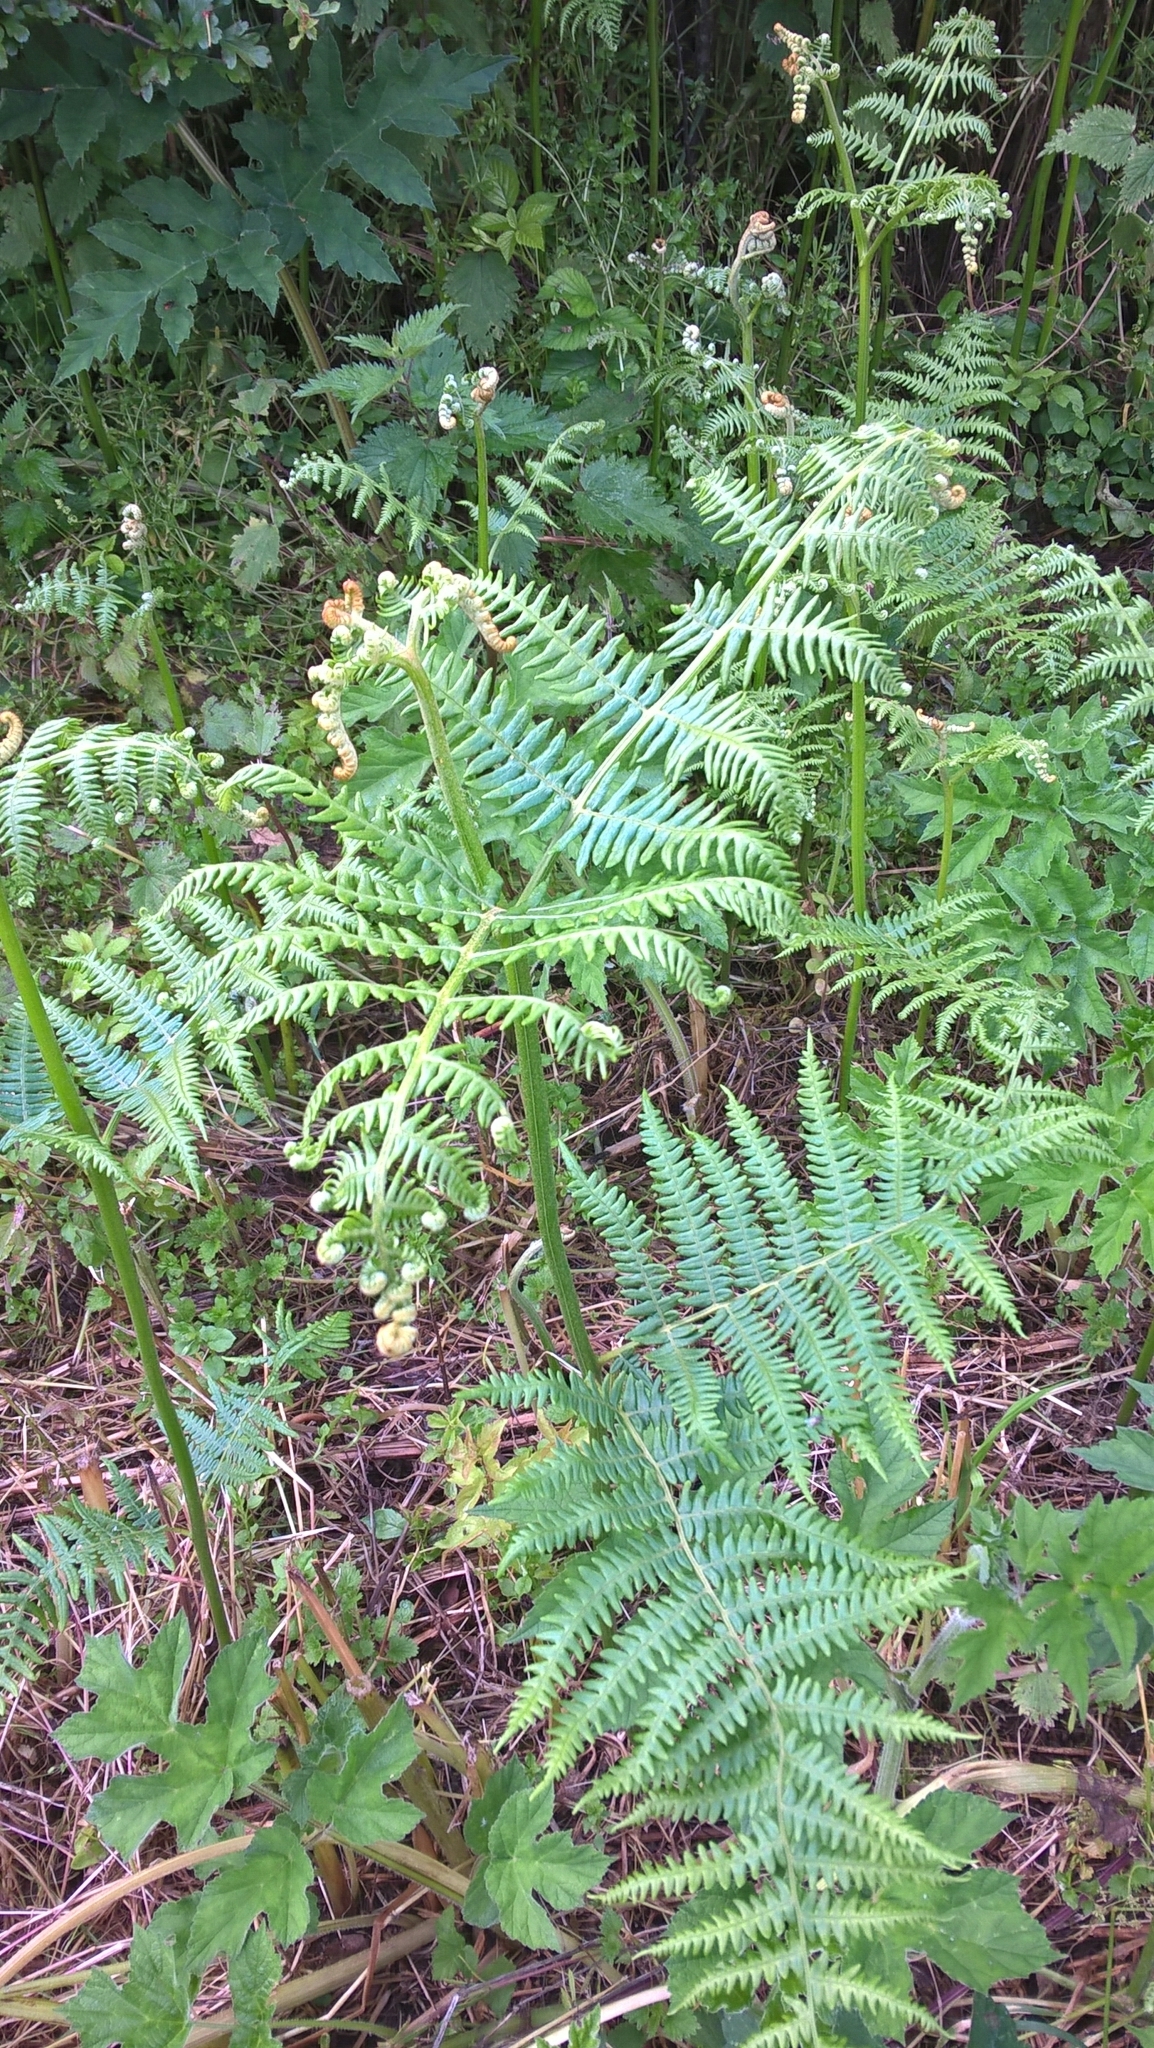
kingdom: Plantae
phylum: Tracheophyta
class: Polypodiopsida
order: Polypodiales
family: Dennstaedtiaceae
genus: Pteridium
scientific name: Pteridium aquilinum
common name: Bracken
